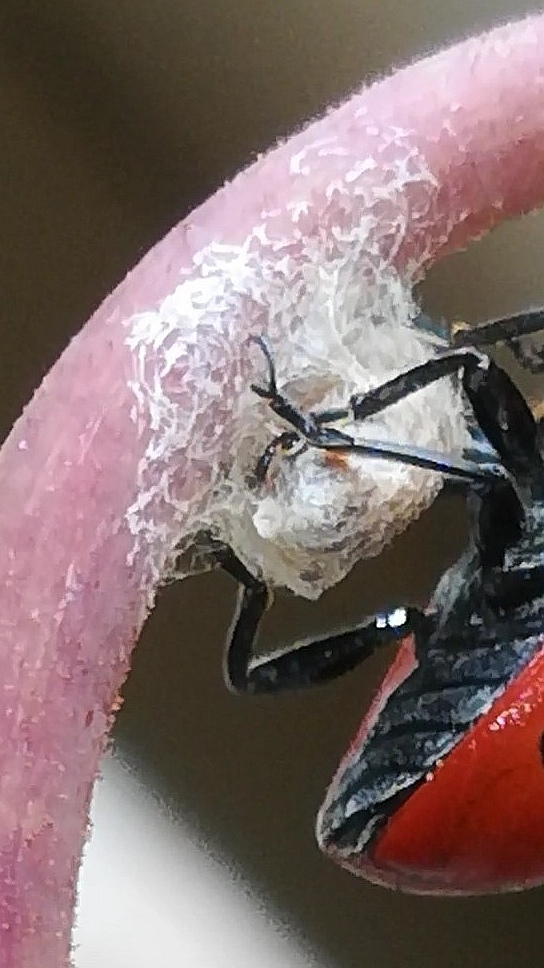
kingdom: Viruses
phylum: Pisuviricota
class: Pisoniviricetes
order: Picornavirales
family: Iflaviridae
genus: Iflavirus
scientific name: Iflavirus dinococcinellae
